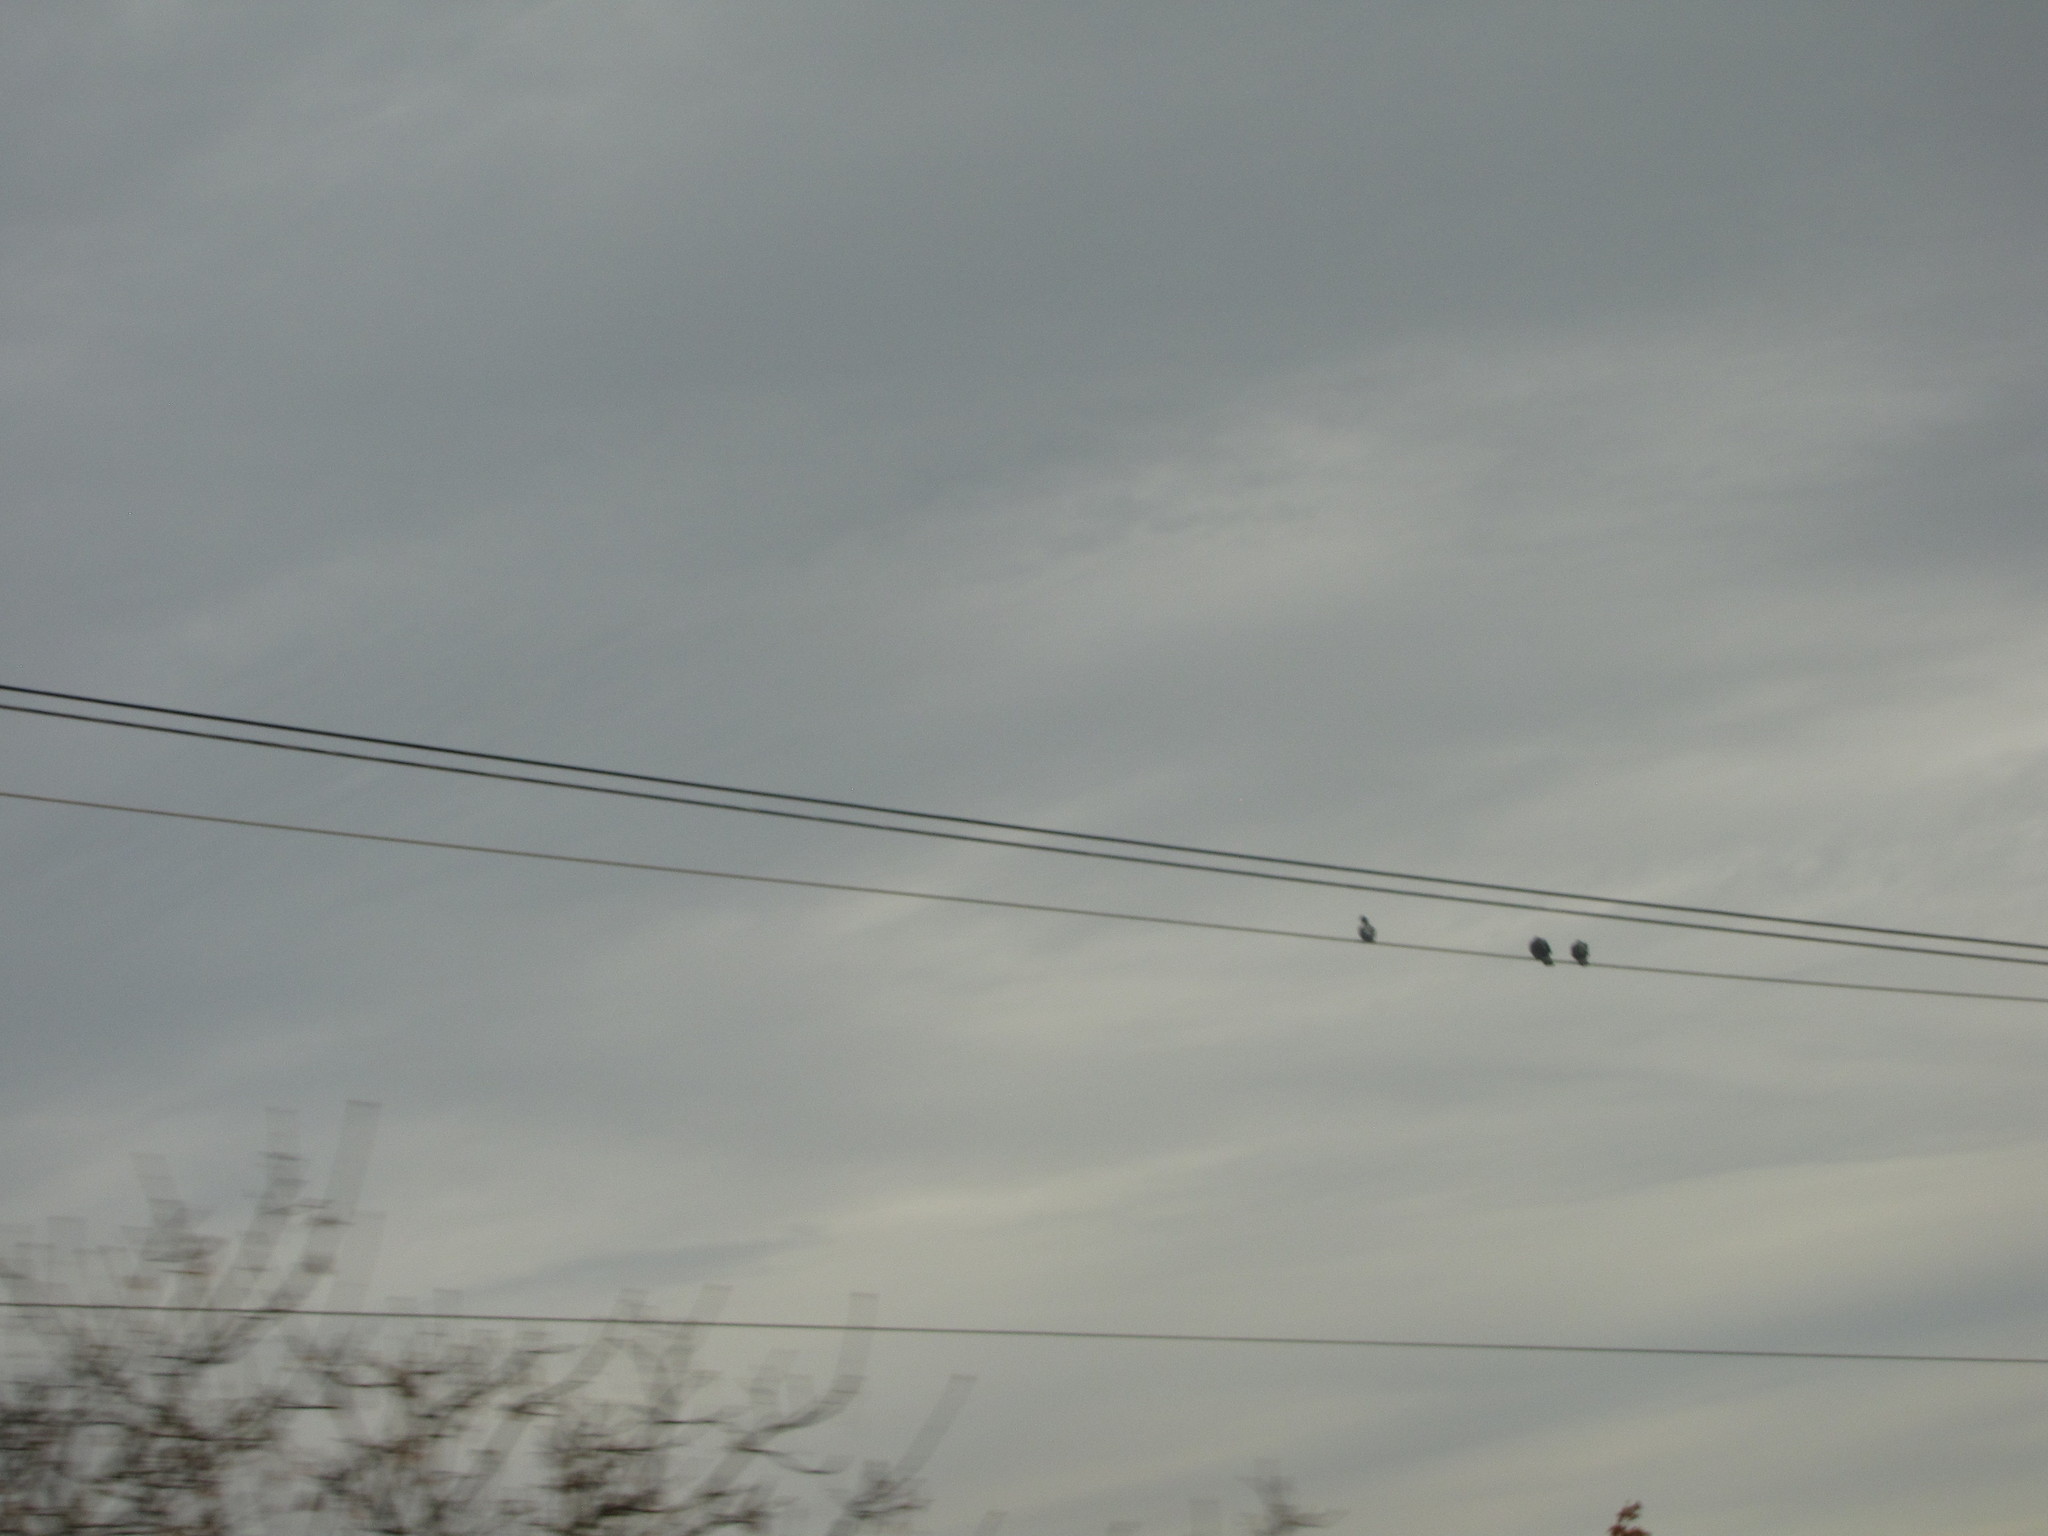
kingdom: Animalia
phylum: Chordata
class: Aves
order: Columbiformes
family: Columbidae
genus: Columba
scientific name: Columba livia
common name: Rock pigeon
